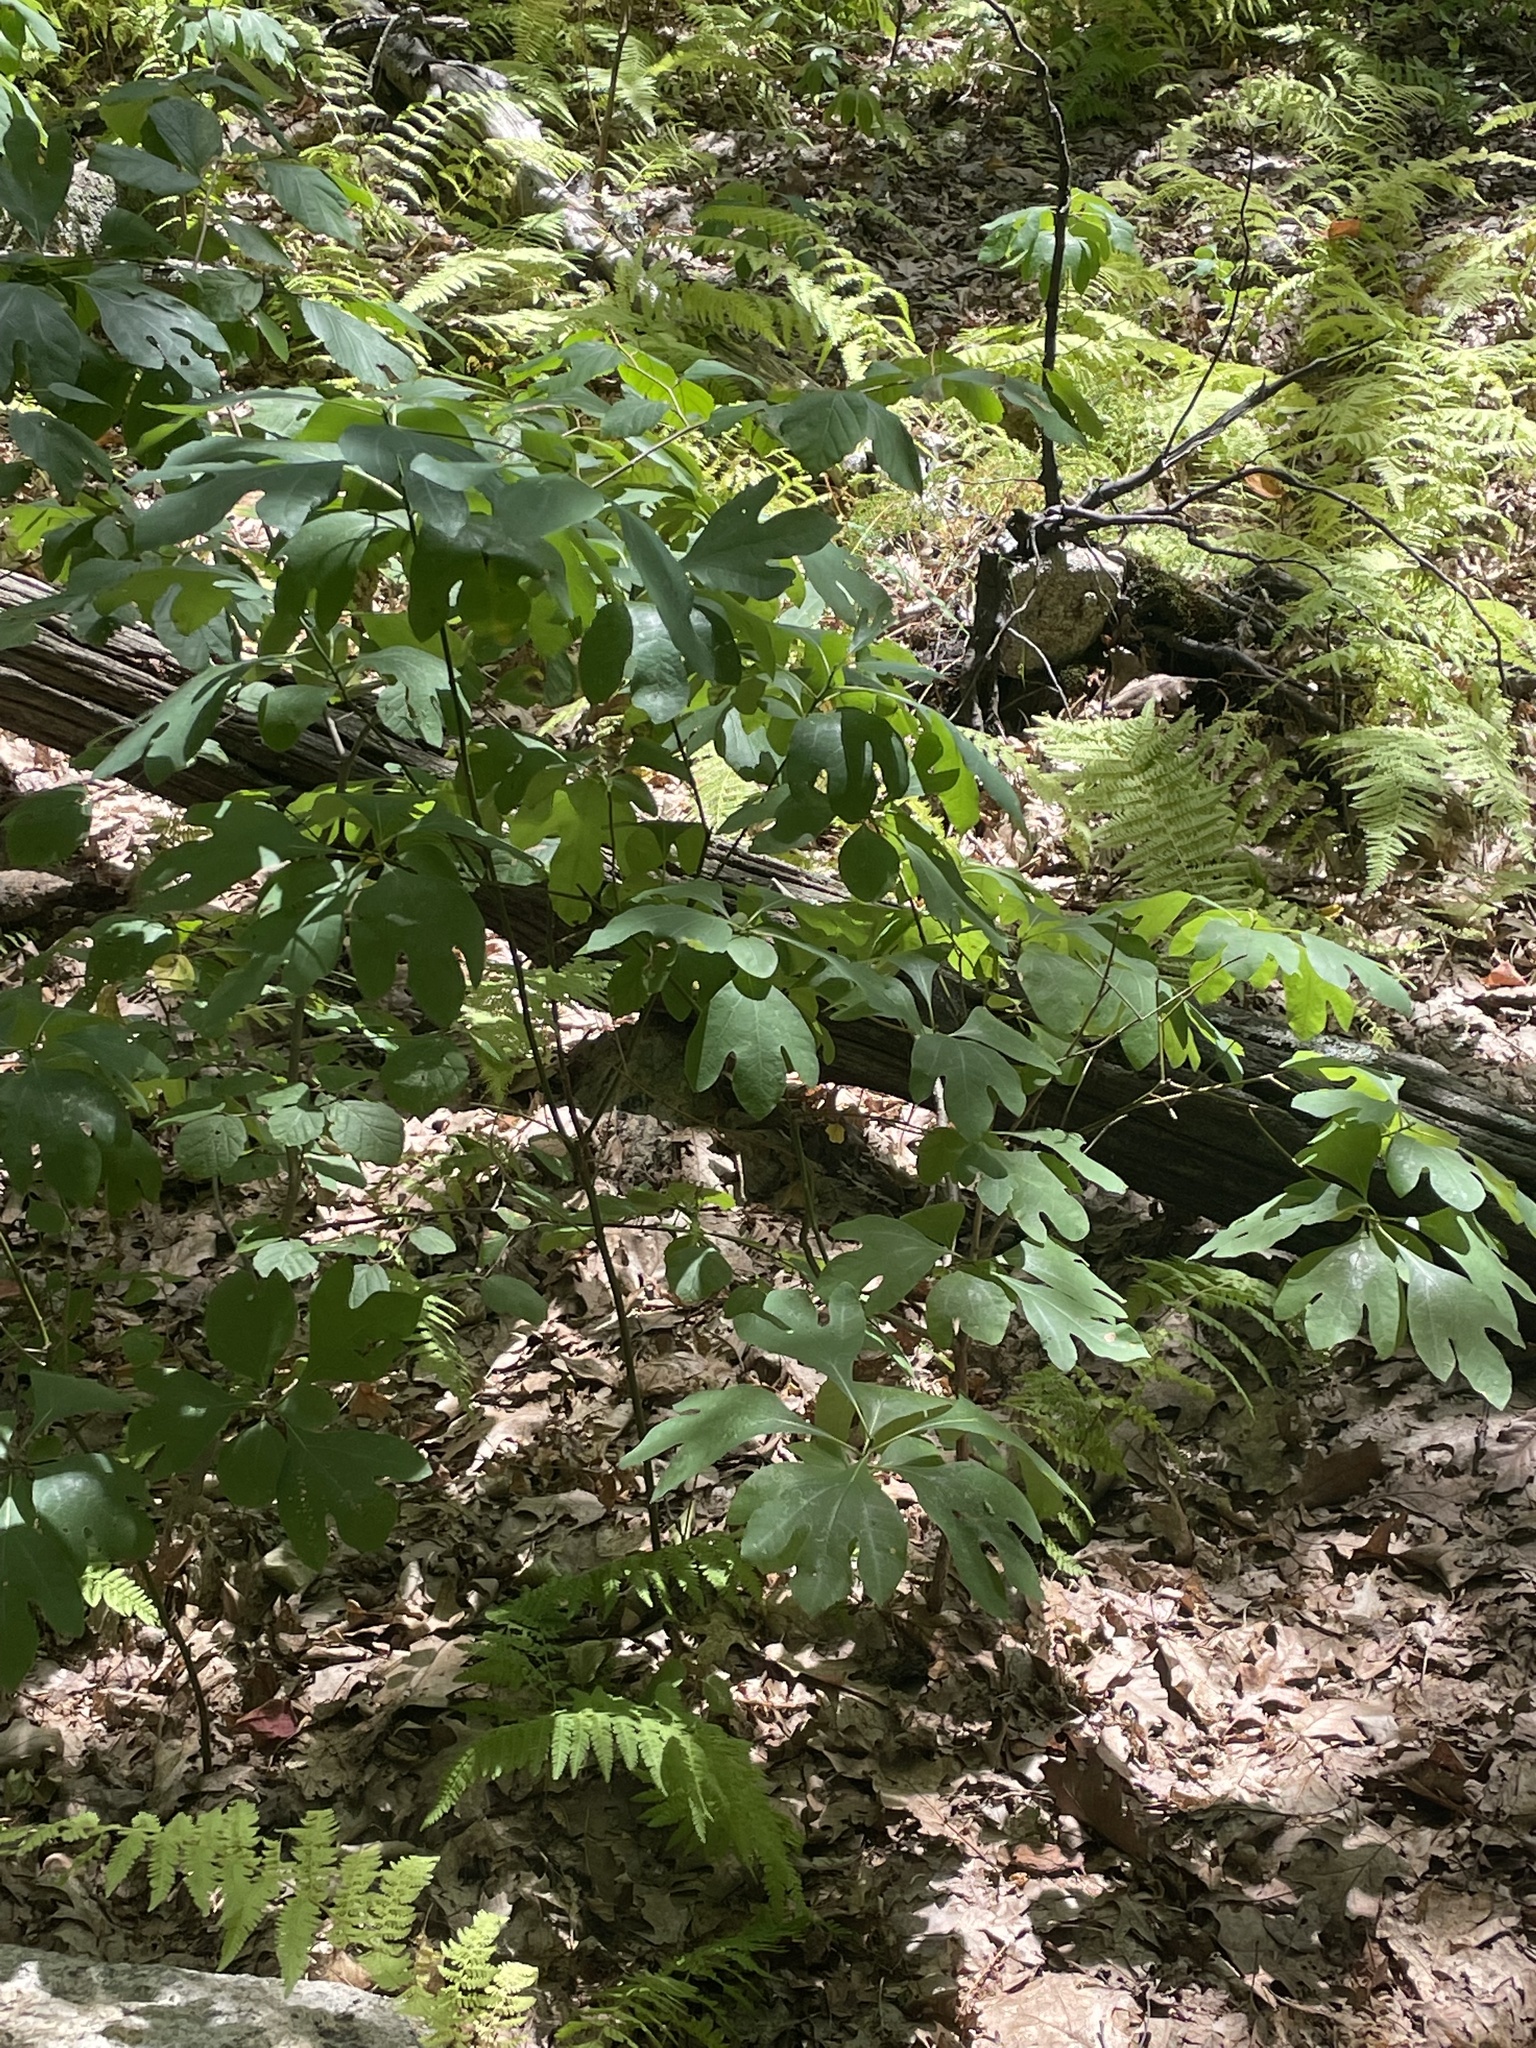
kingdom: Plantae
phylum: Tracheophyta
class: Magnoliopsida
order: Laurales
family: Lauraceae
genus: Sassafras
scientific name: Sassafras albidum
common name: Sassafras
